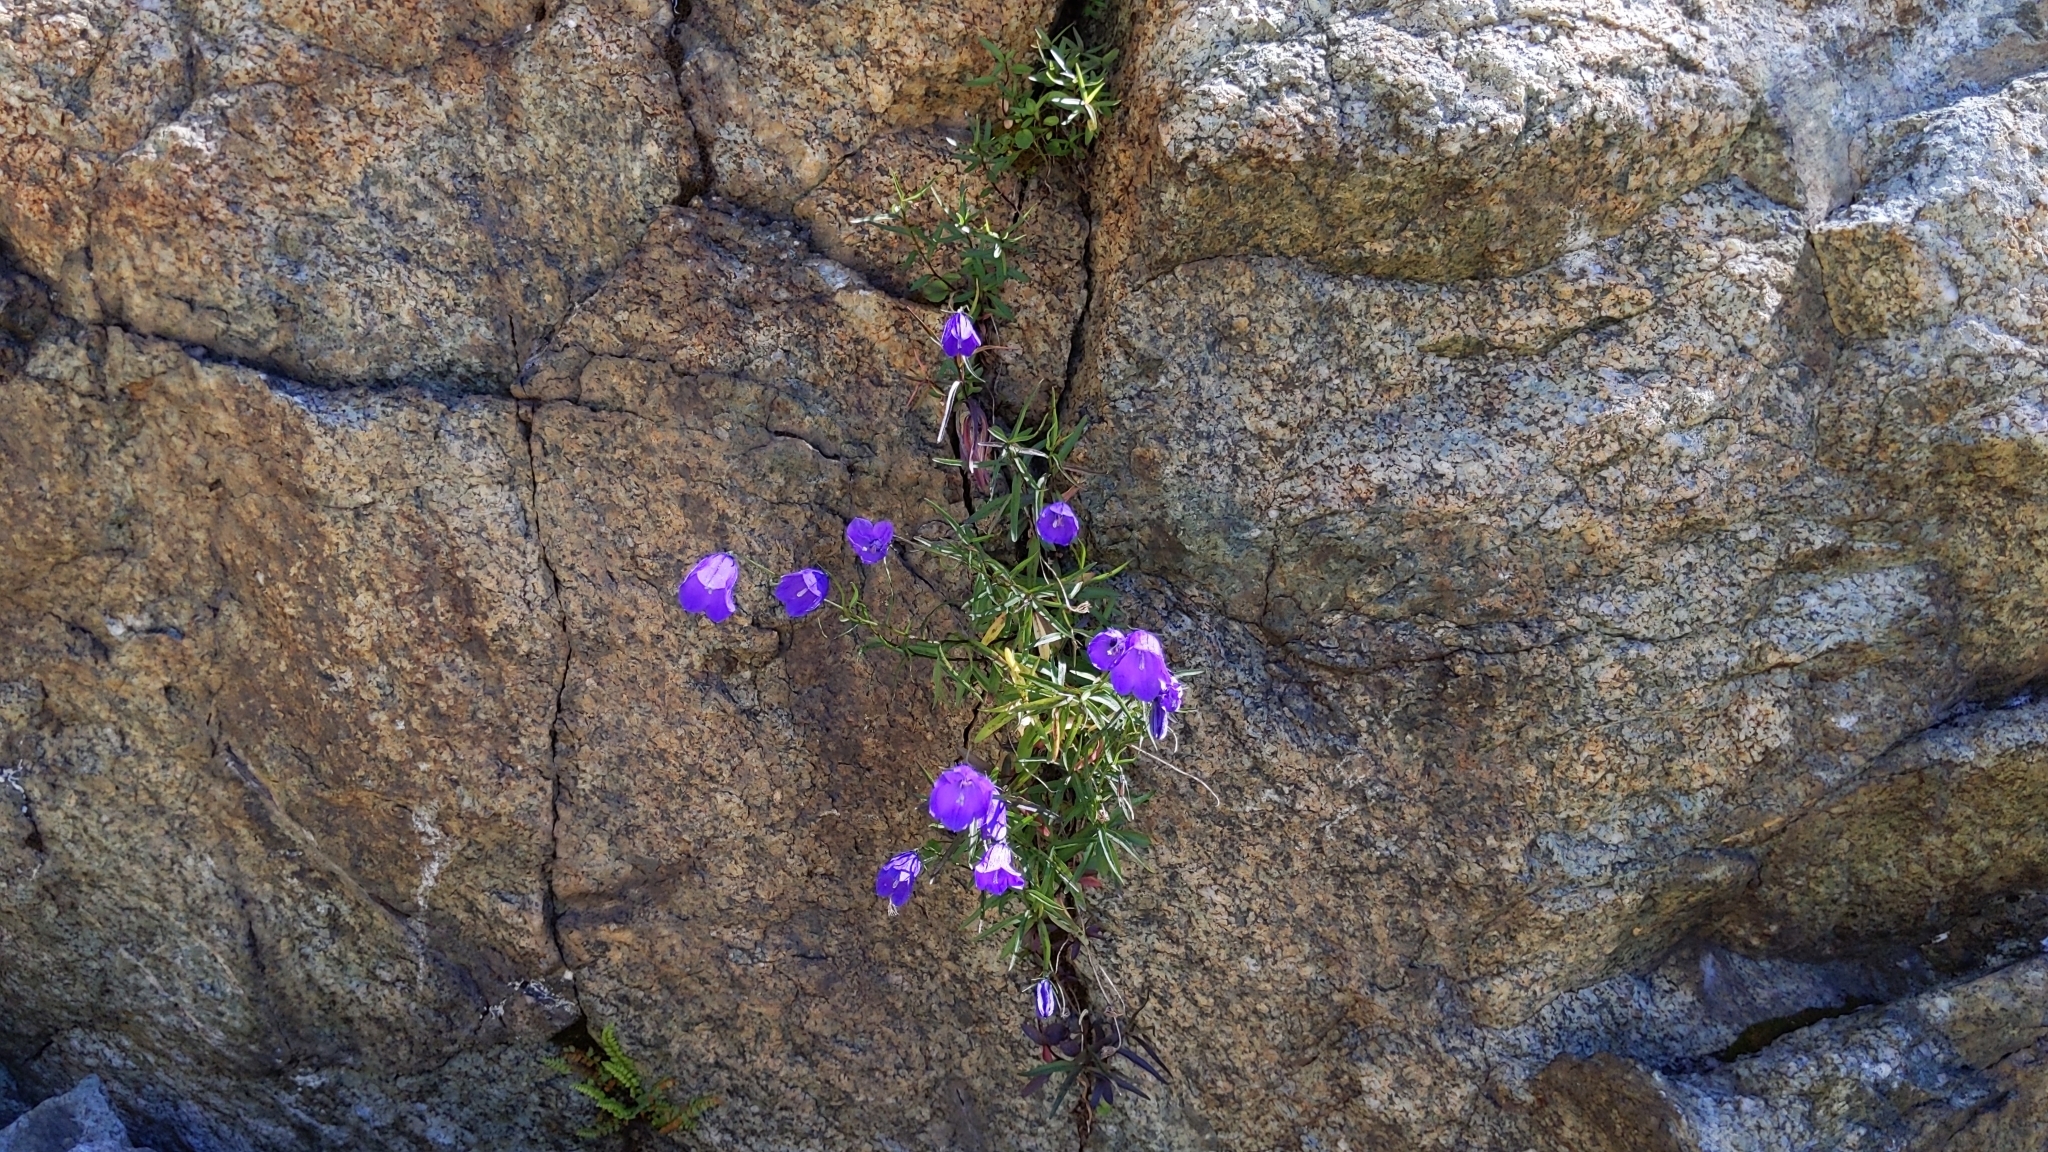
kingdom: Plantae
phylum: Tracheophyta
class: Magnoliopsida
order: Asterales
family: Campanulaceae
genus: Campanula
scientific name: Campanula scheuchzeri
